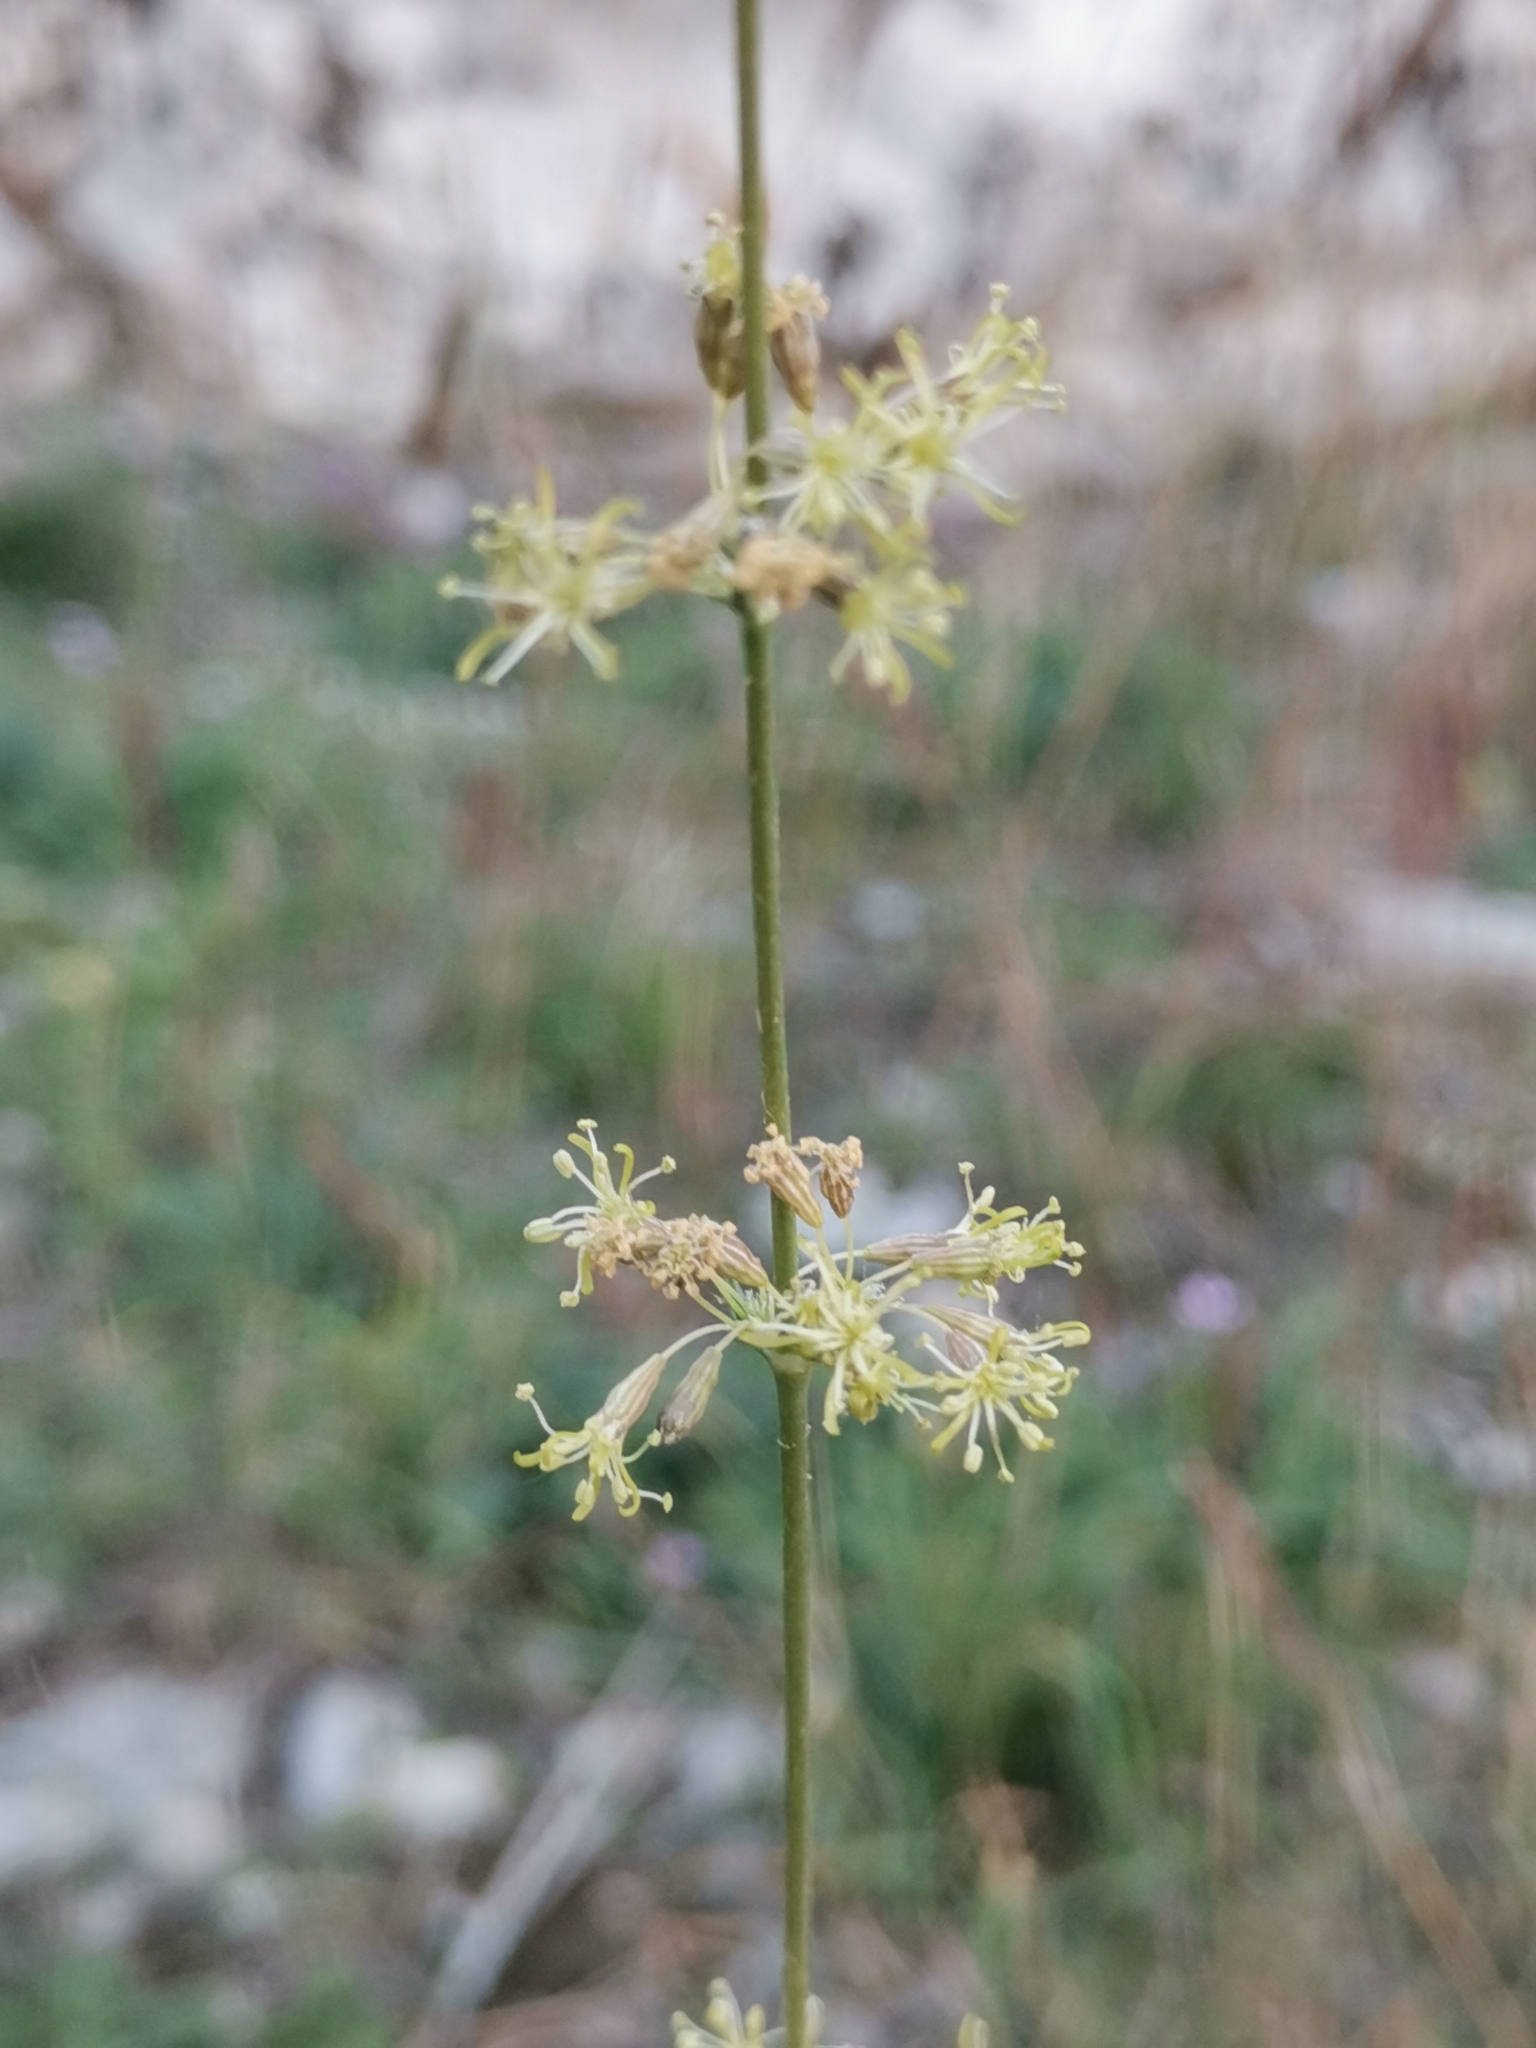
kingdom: Plantae
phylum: Tracheophyta
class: Magnoliopsida
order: Caryophyllales
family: Caryophyllaceae
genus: Silene
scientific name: Silene otites
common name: Spanish catchfly
